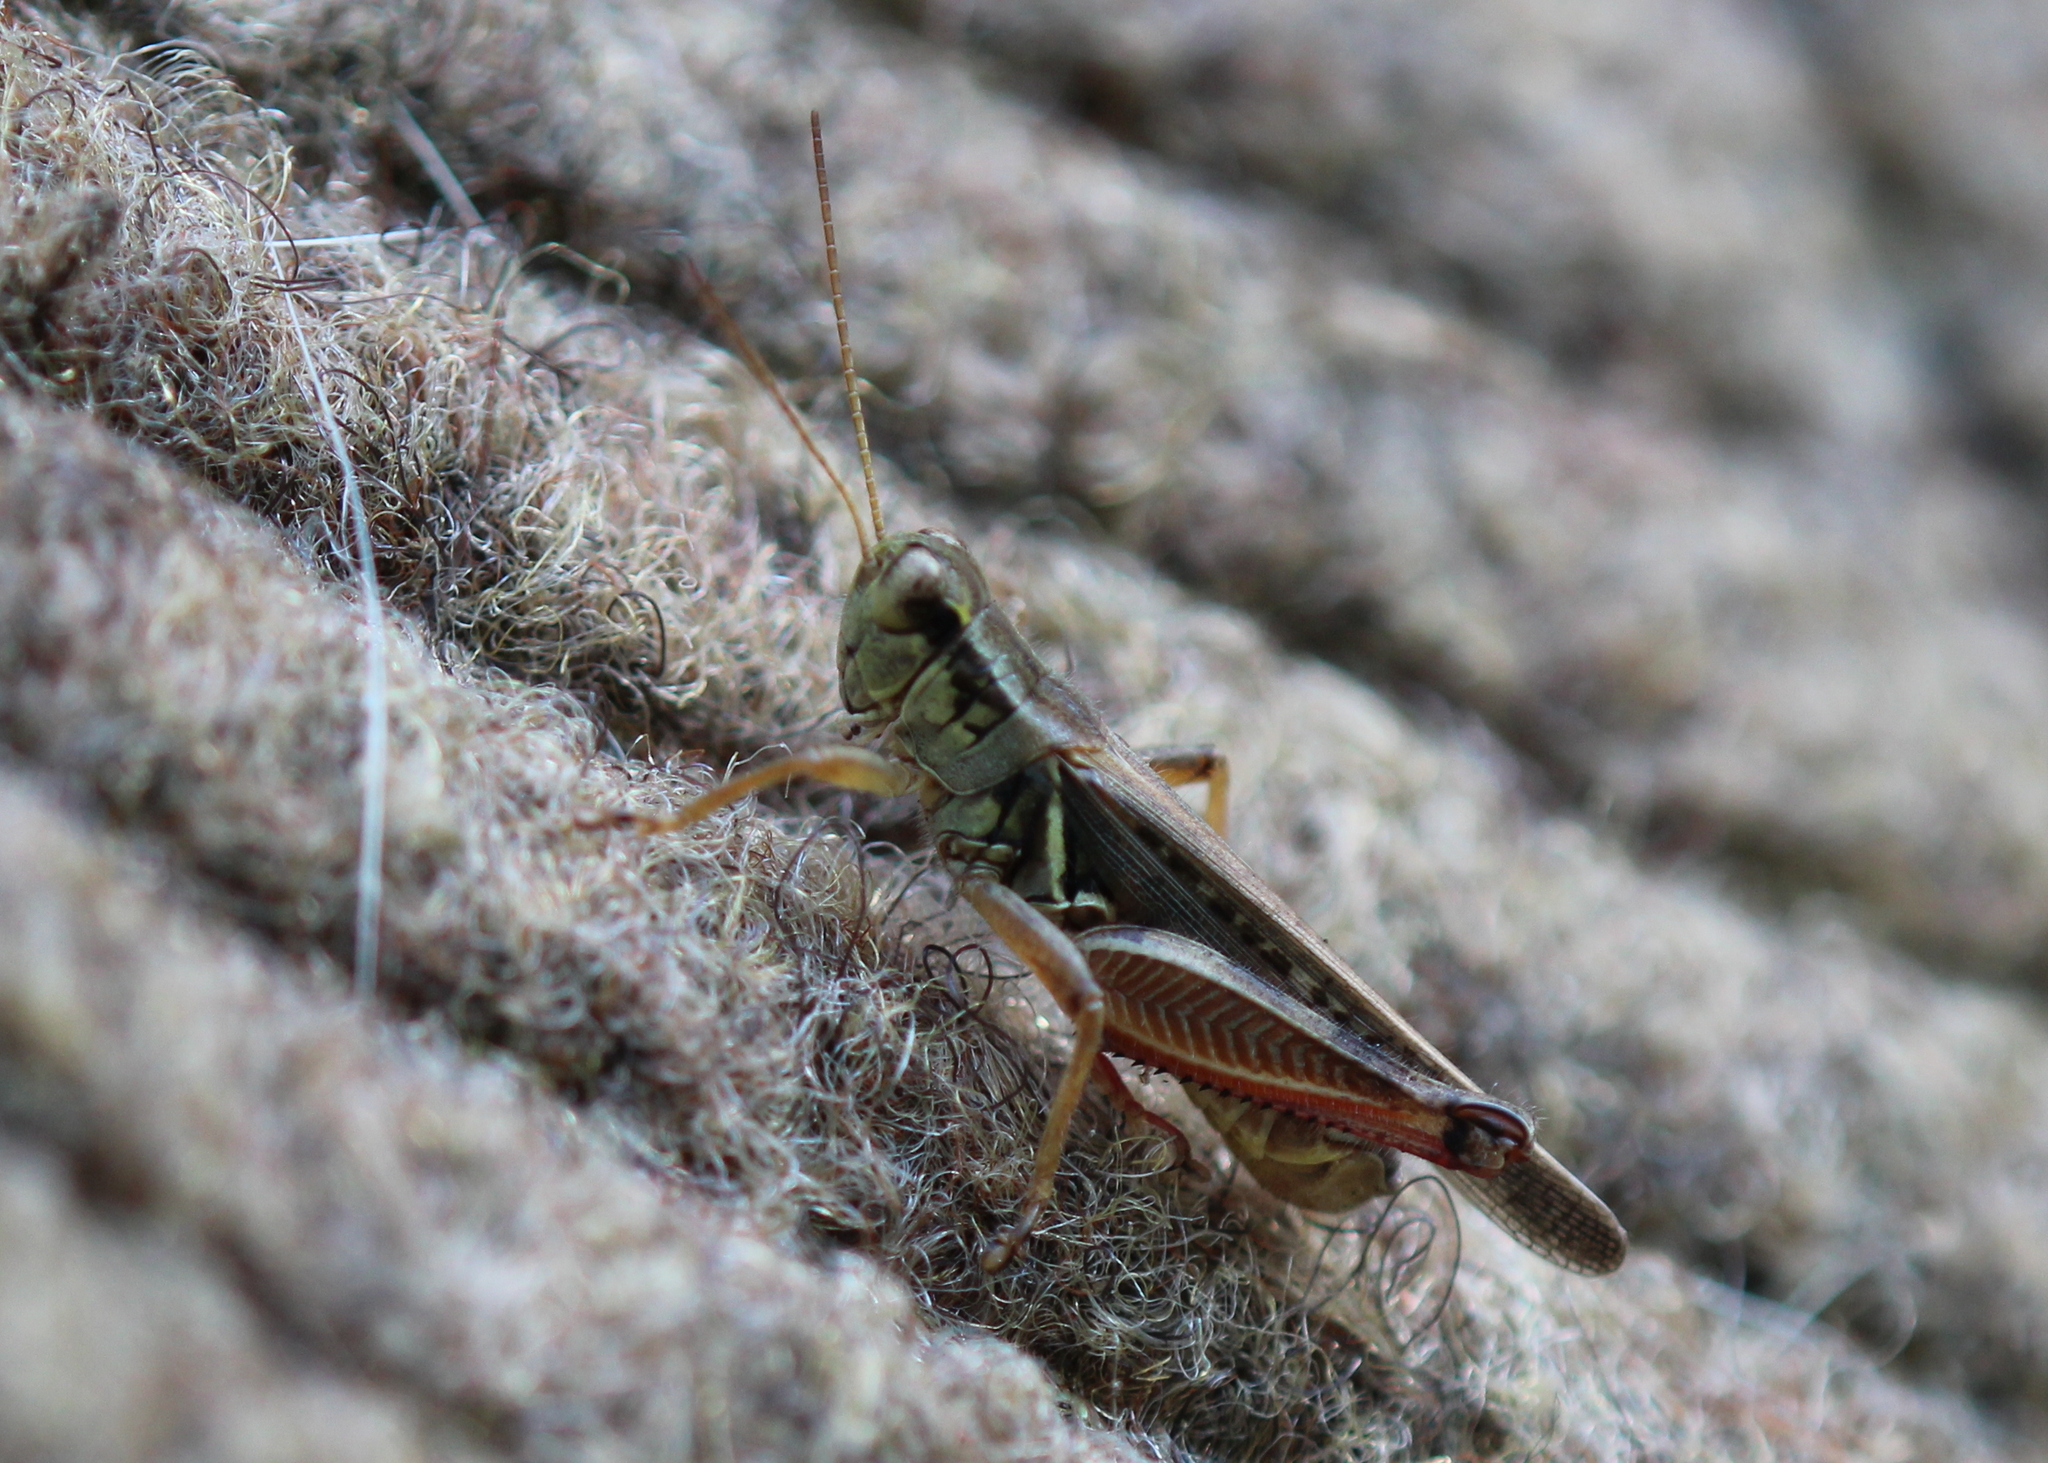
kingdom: Animalia
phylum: Arthropoda
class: Insecta
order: Orthoptera
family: Acrididae
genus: Melanoplus
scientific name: Melanoplus femurrubrum
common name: Red-legged grasshopper
